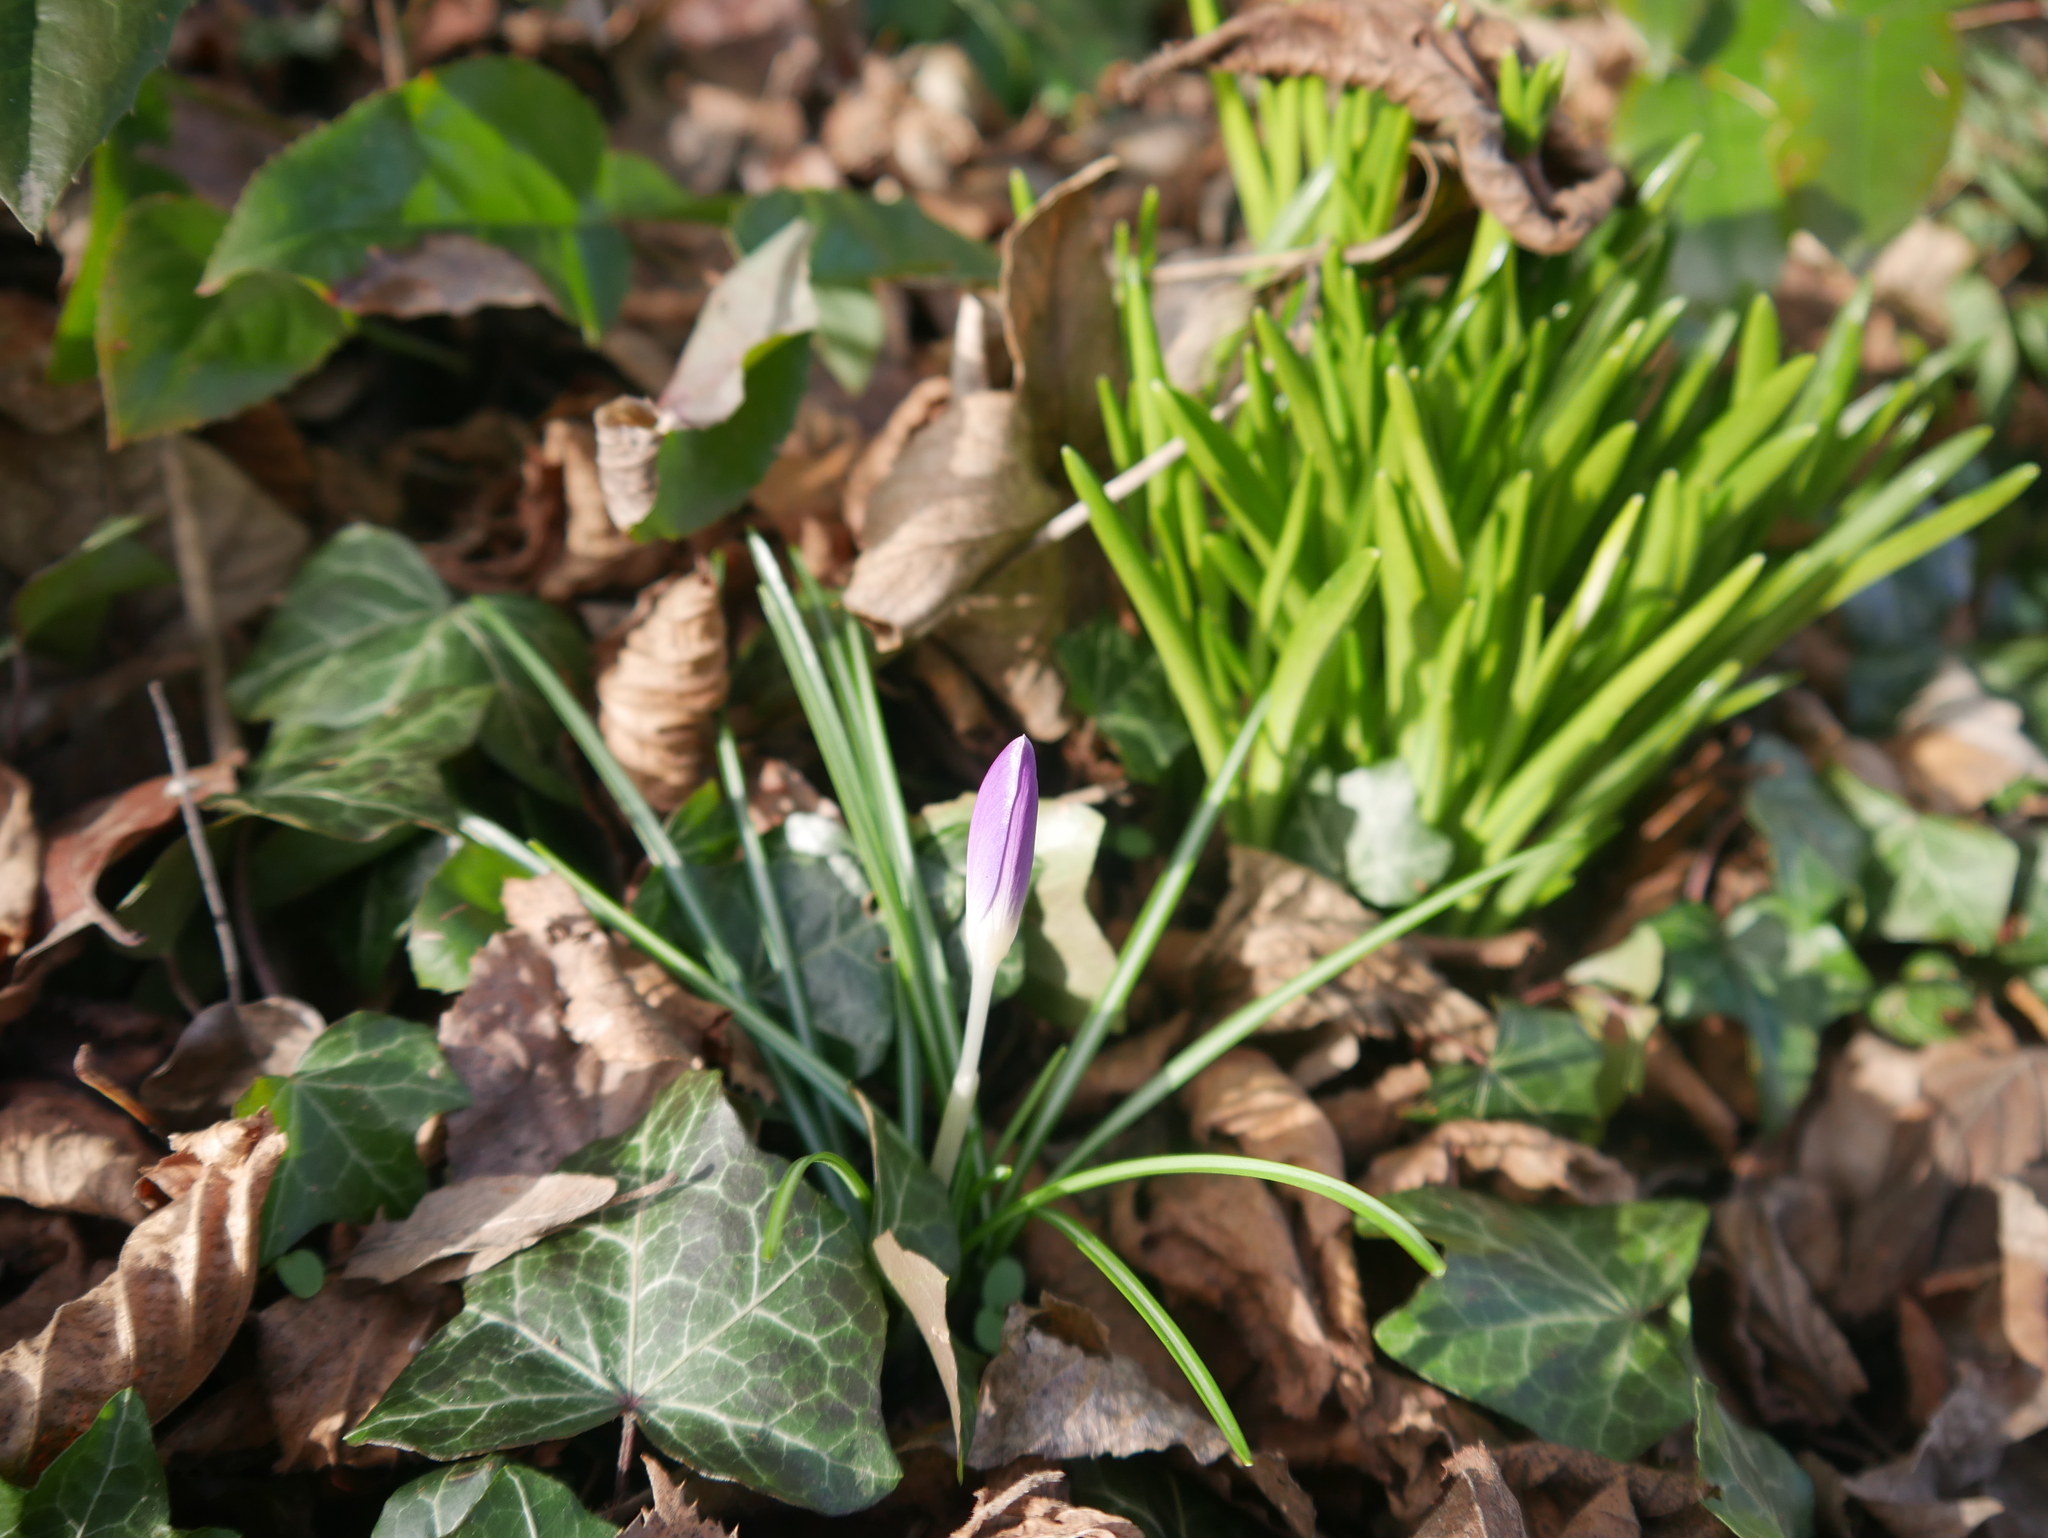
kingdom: Plantae
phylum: Tracheophyta
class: Liliopsida
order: Asparagales
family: Iridaceae
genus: Crocus
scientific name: Crocus tommasinianus
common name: Early crocus
